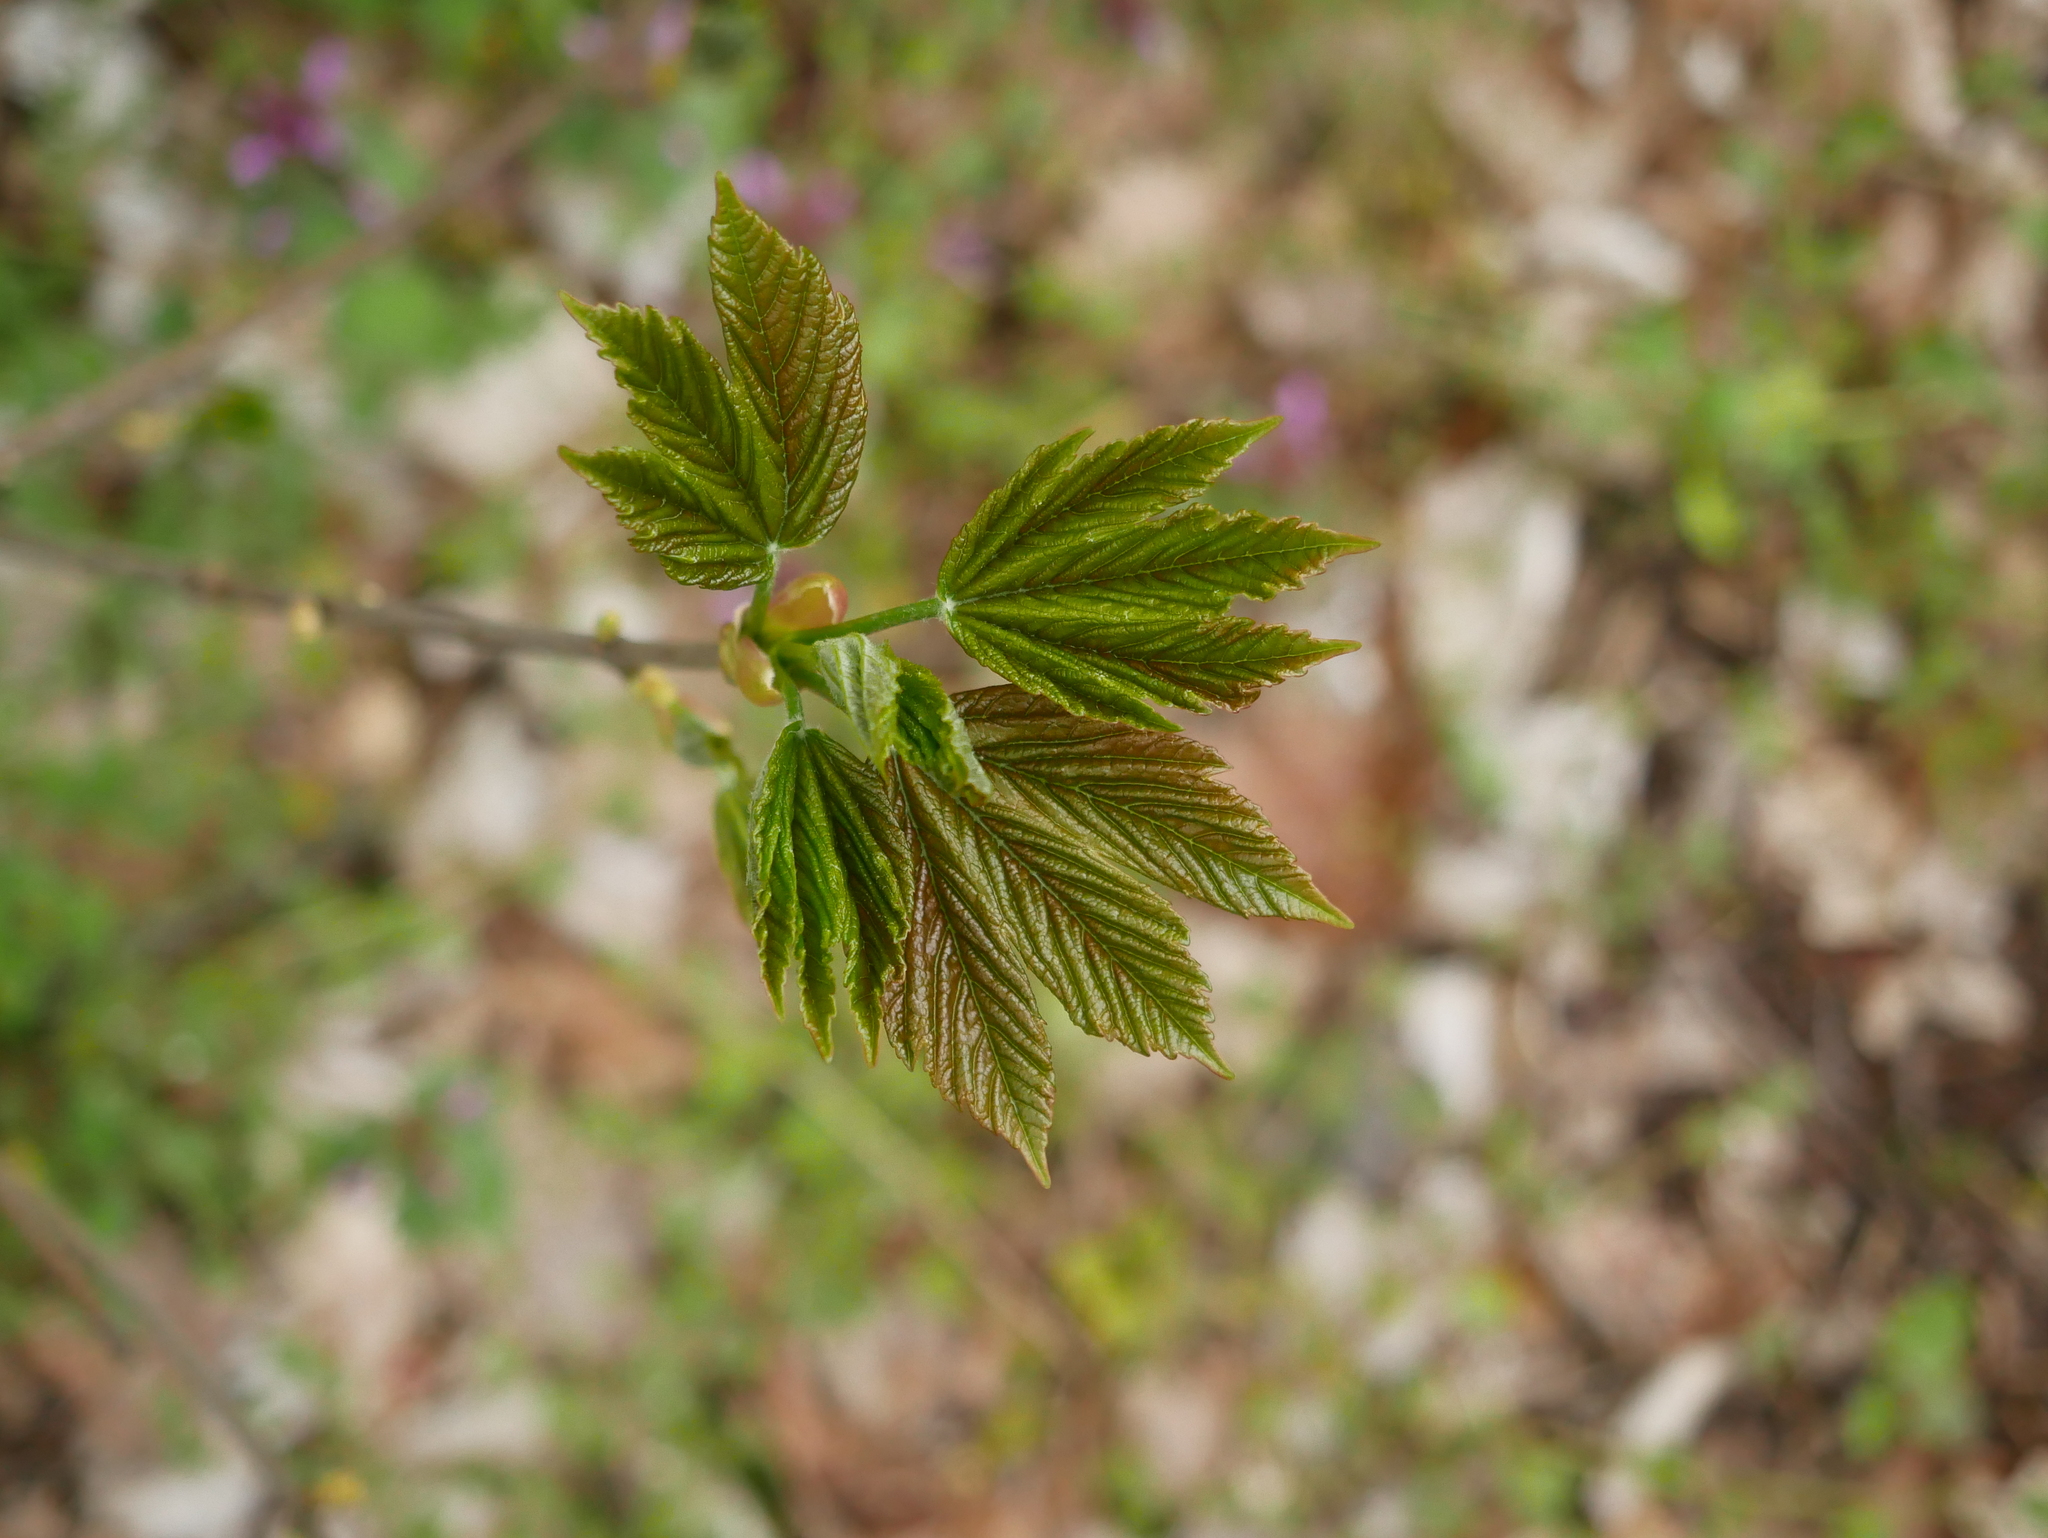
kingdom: Plantae
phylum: Tracheophyta
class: Magnoliopsida
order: Sapindales
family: Sapindaceae
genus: Acer
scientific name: Acer pseudoplatanus
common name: Sycamore
